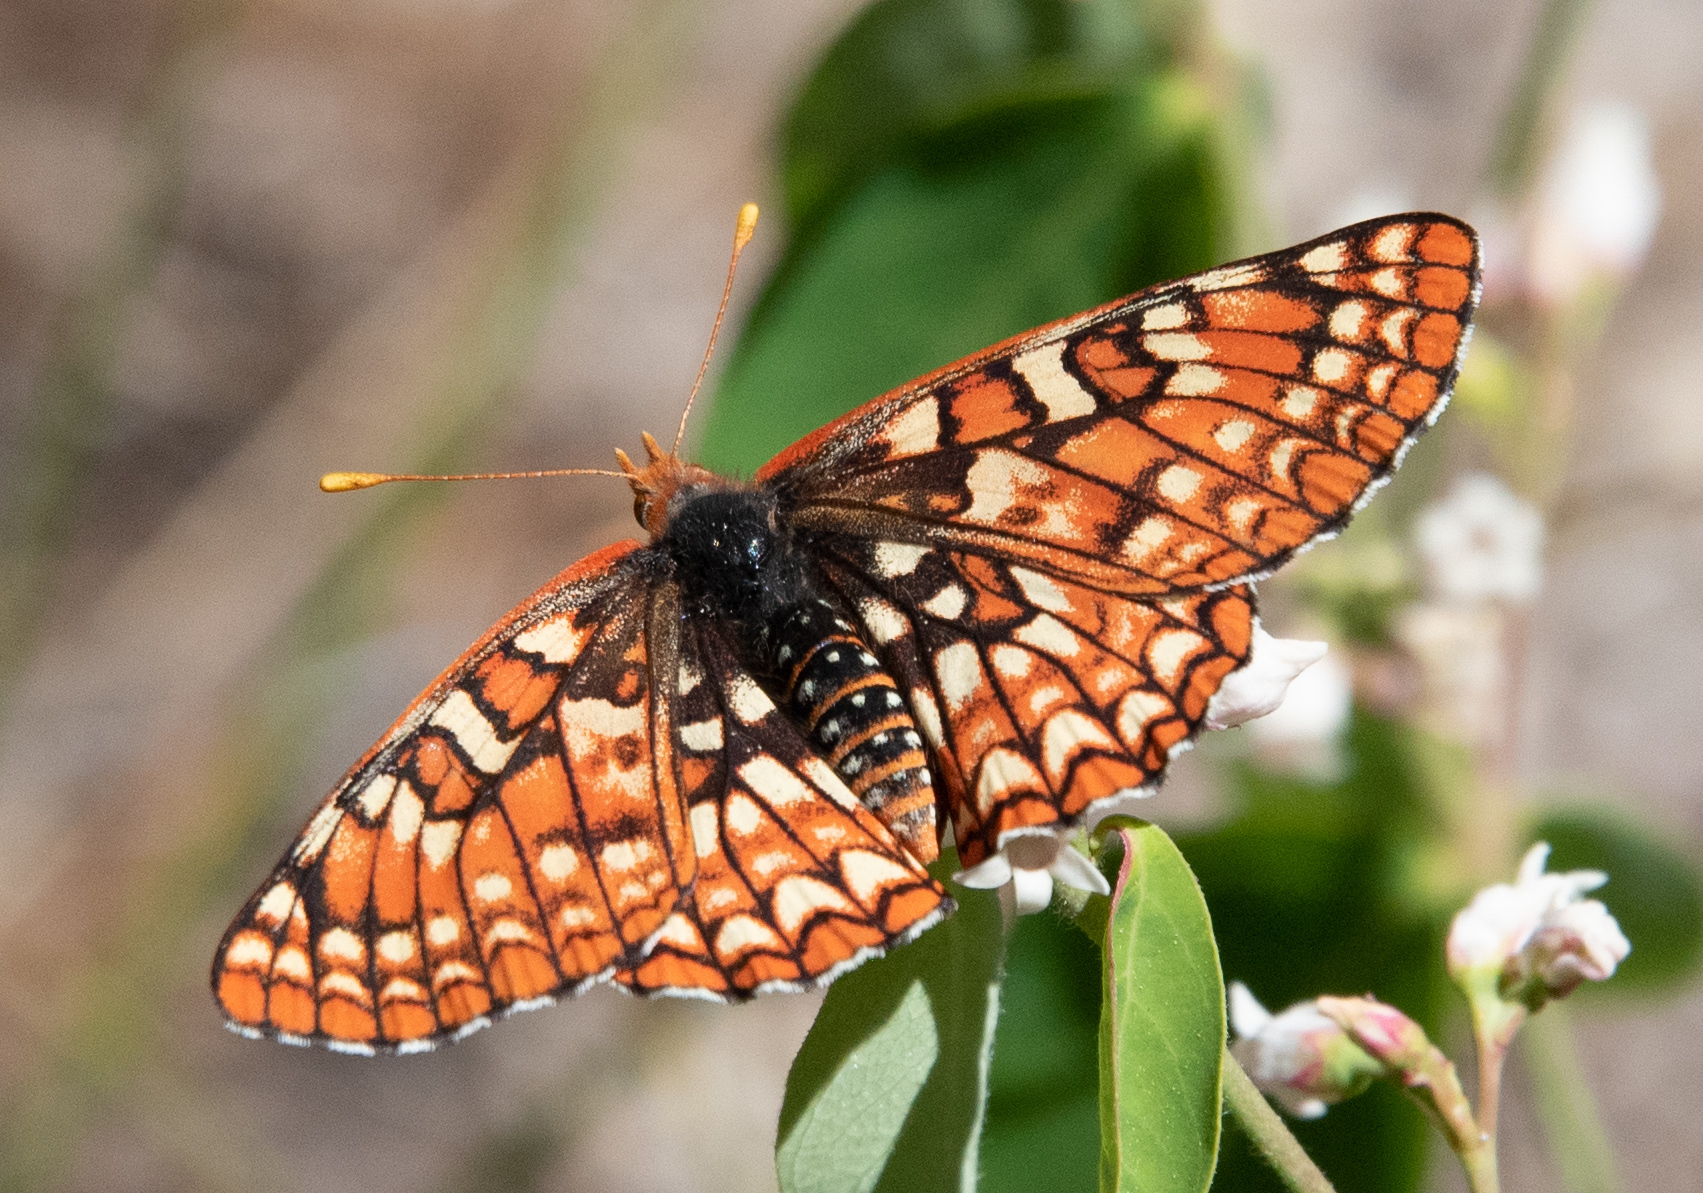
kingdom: Animalia
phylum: Arthropoda
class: Insecta
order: Lepidoptera
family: Nymphalidae
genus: Occidryas
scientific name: Occidryas chalcedona
